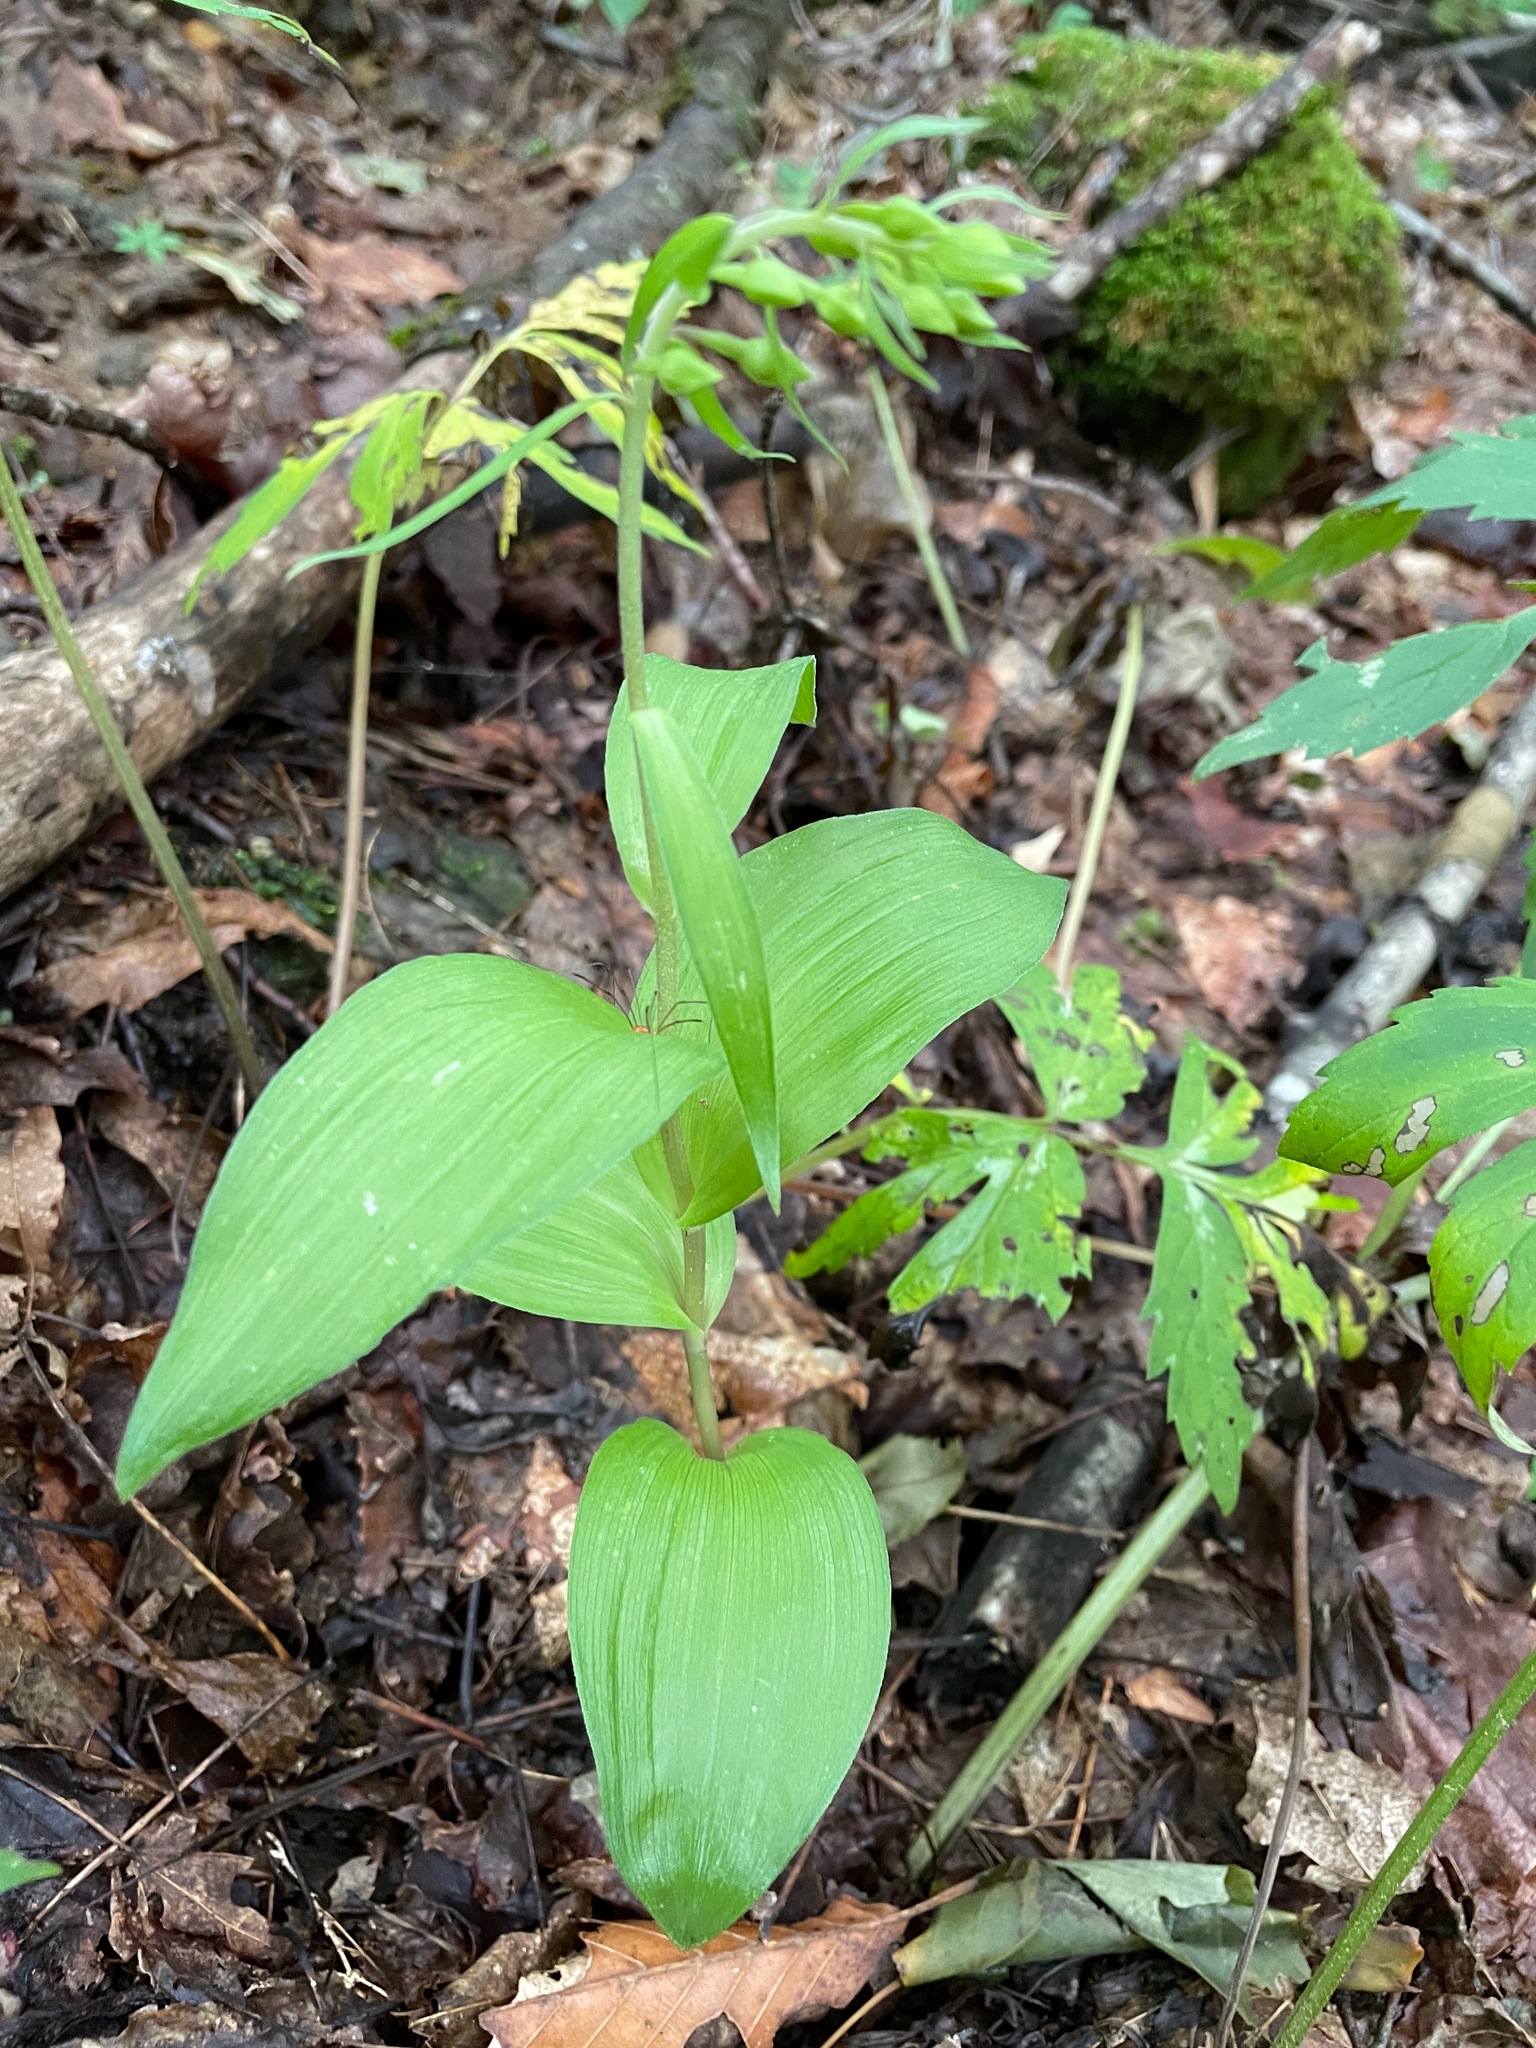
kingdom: Plantae
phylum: Tracheophyta
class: Liliopsida
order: Asparagales
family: Orchidaceae
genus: Epipactis
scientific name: Epipactis helleborine
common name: Broad-leaved helleborine
